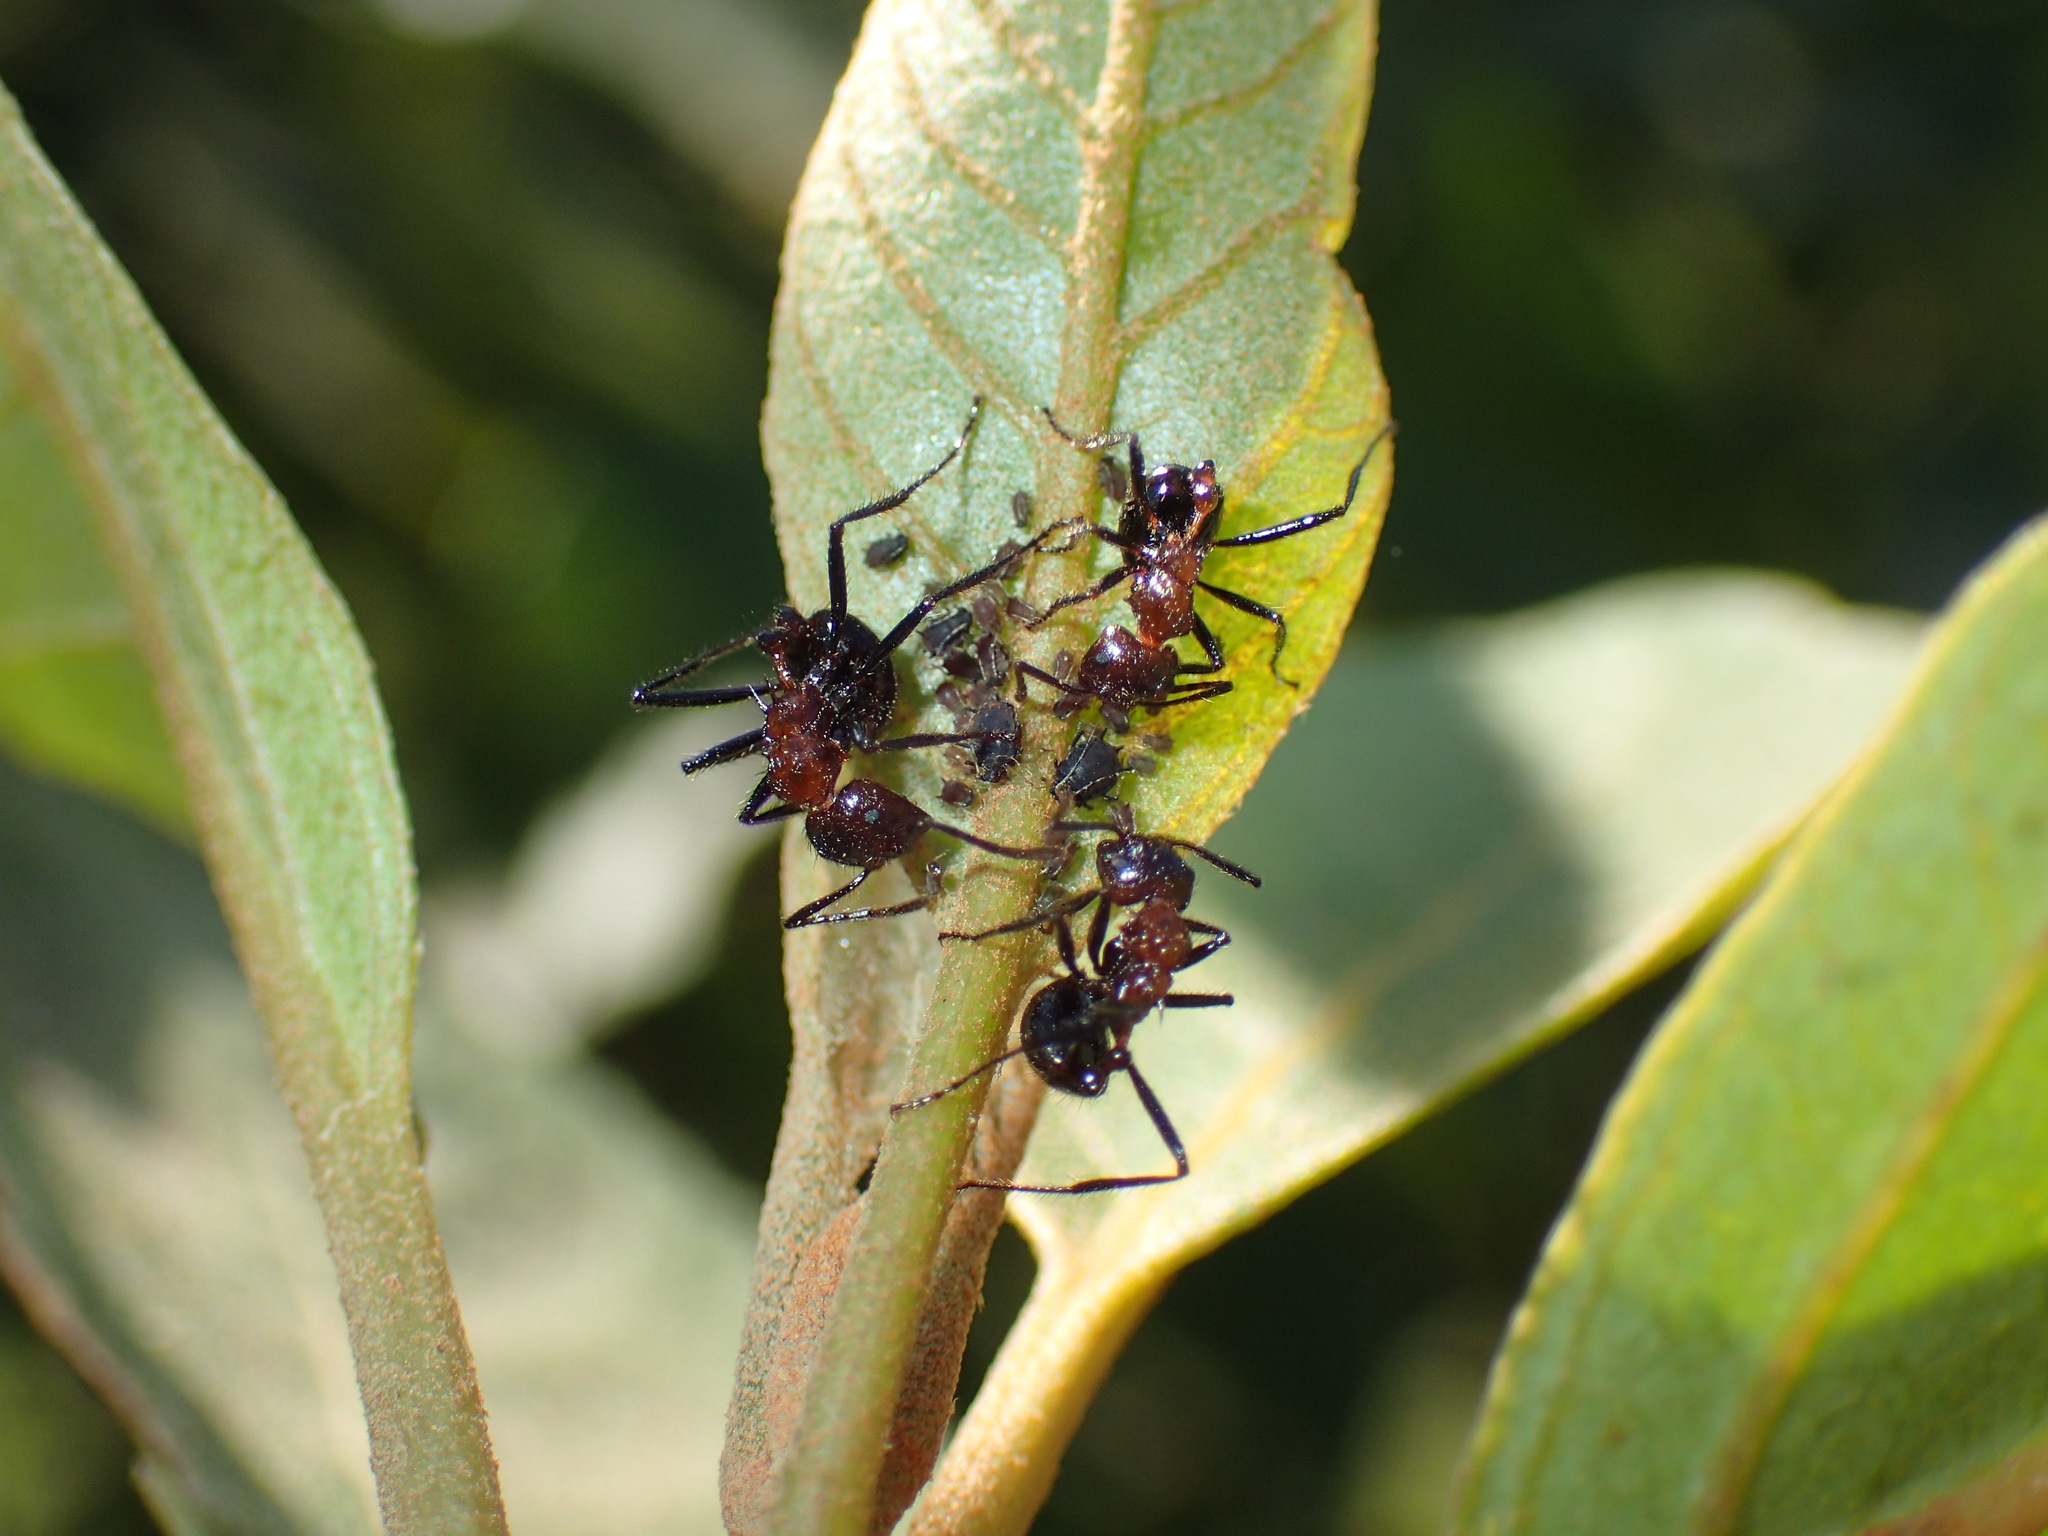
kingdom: Animalia
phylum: Arthropoda
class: Insecta
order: Hymenoptera
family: Formicidae
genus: Myrmicaria
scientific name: Myrmicaria natalensis
